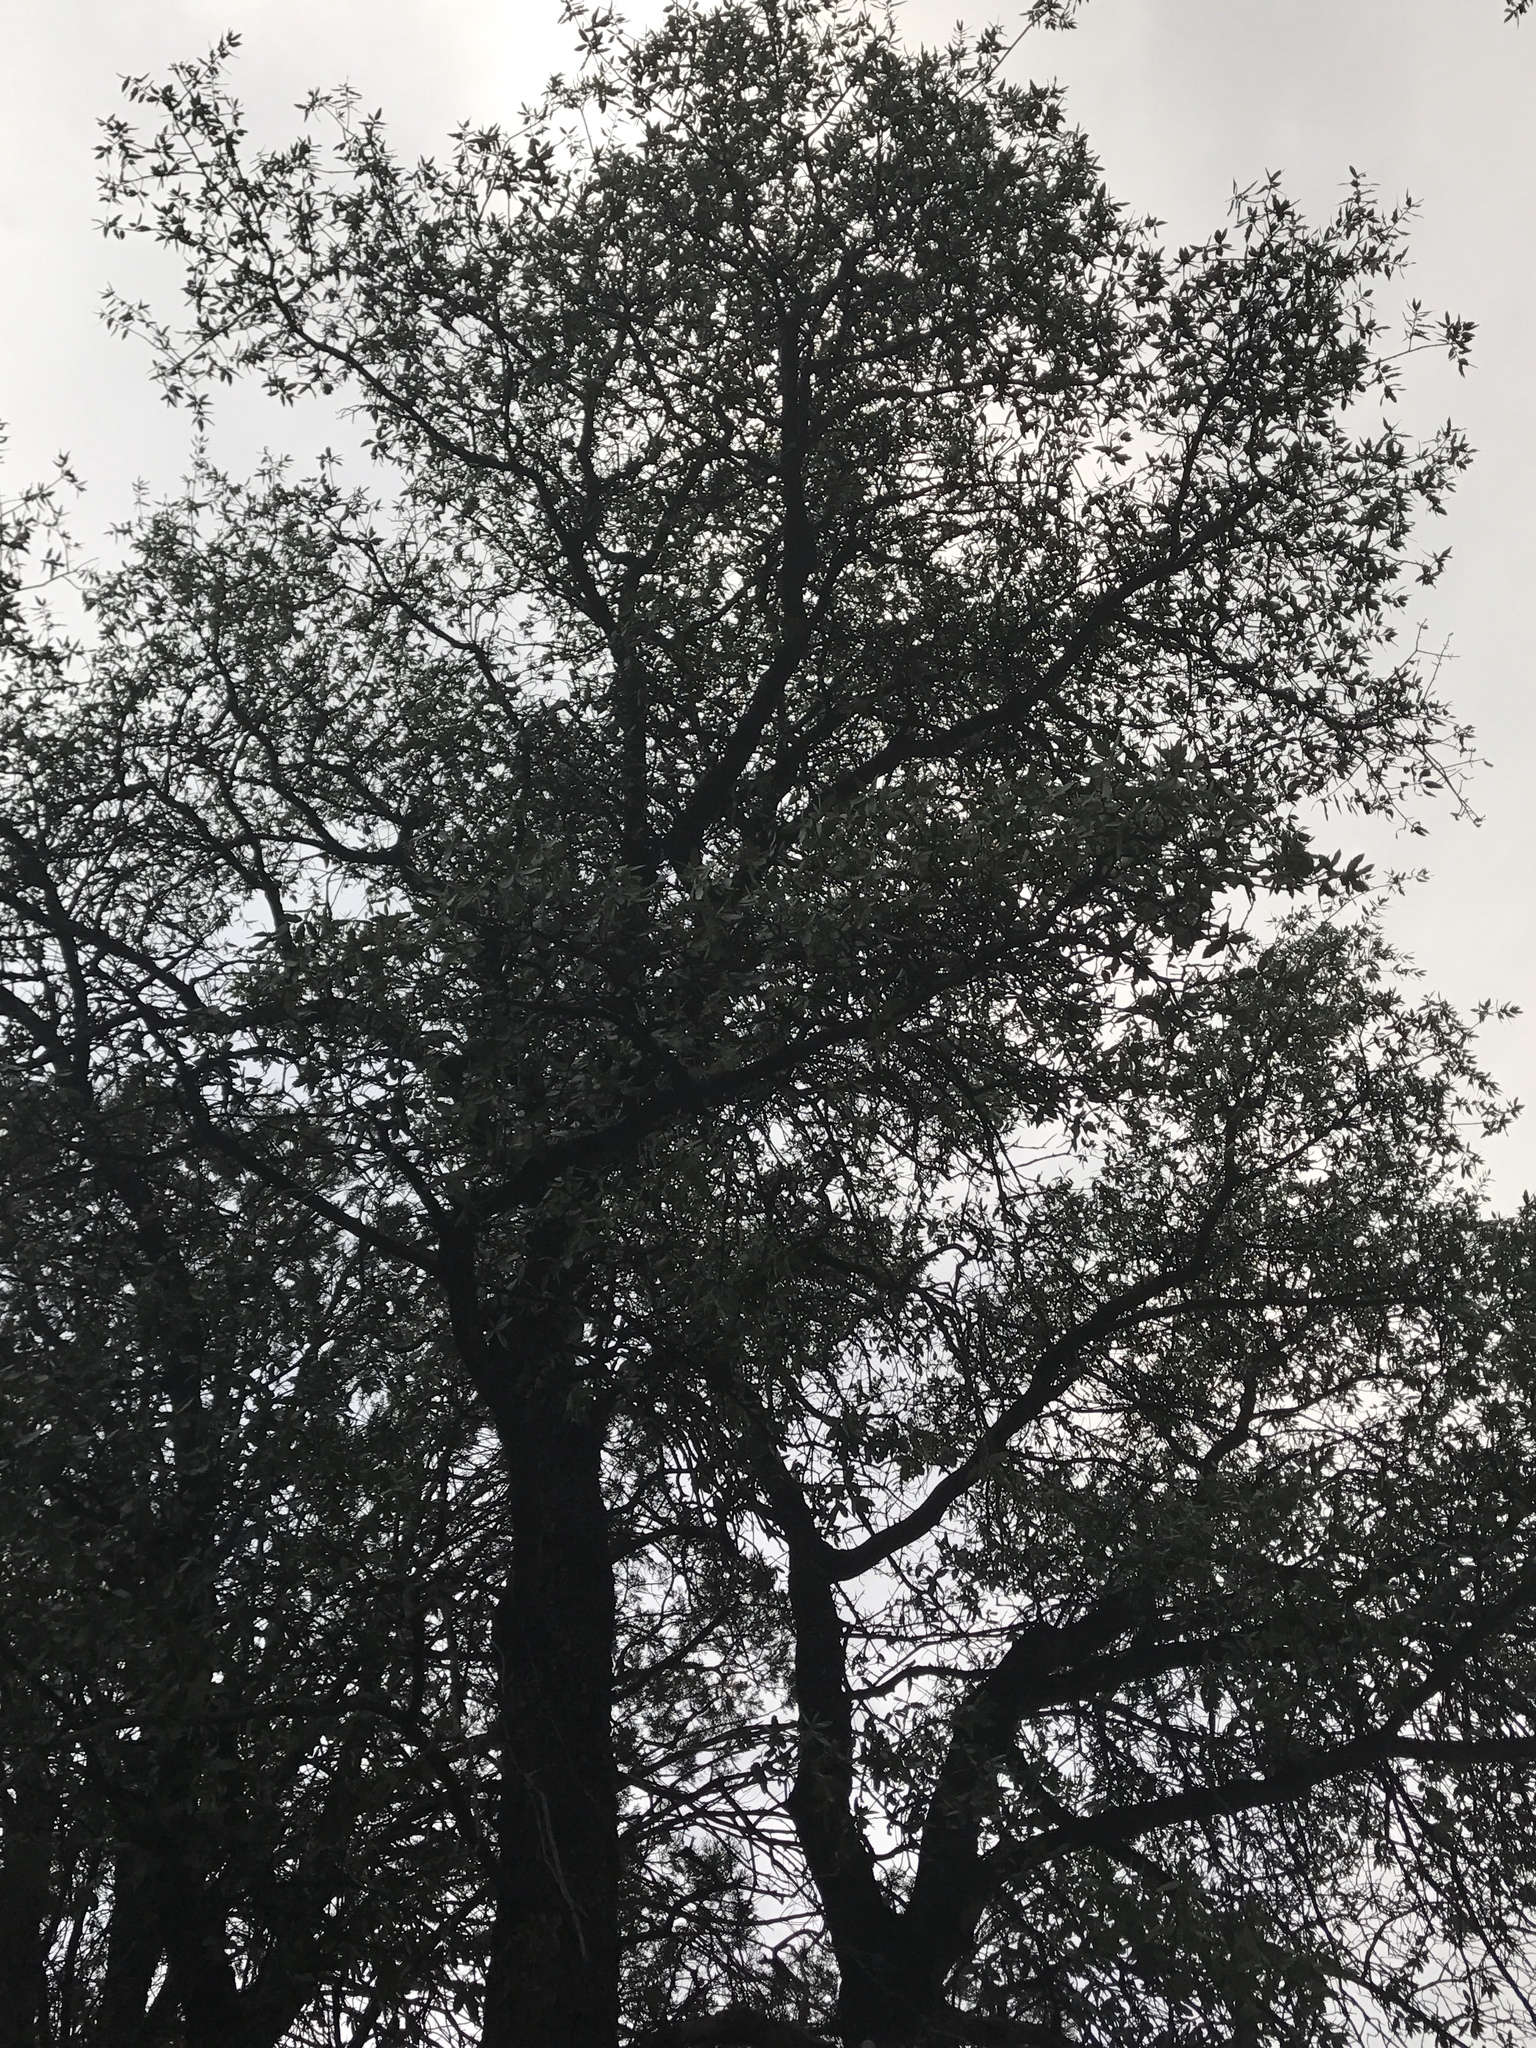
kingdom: Plantae
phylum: Tracheophyta
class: Magnoliopsida
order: Fagales
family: Fagaceae
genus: Quercus
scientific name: Quercus emoryi
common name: Emory oak
